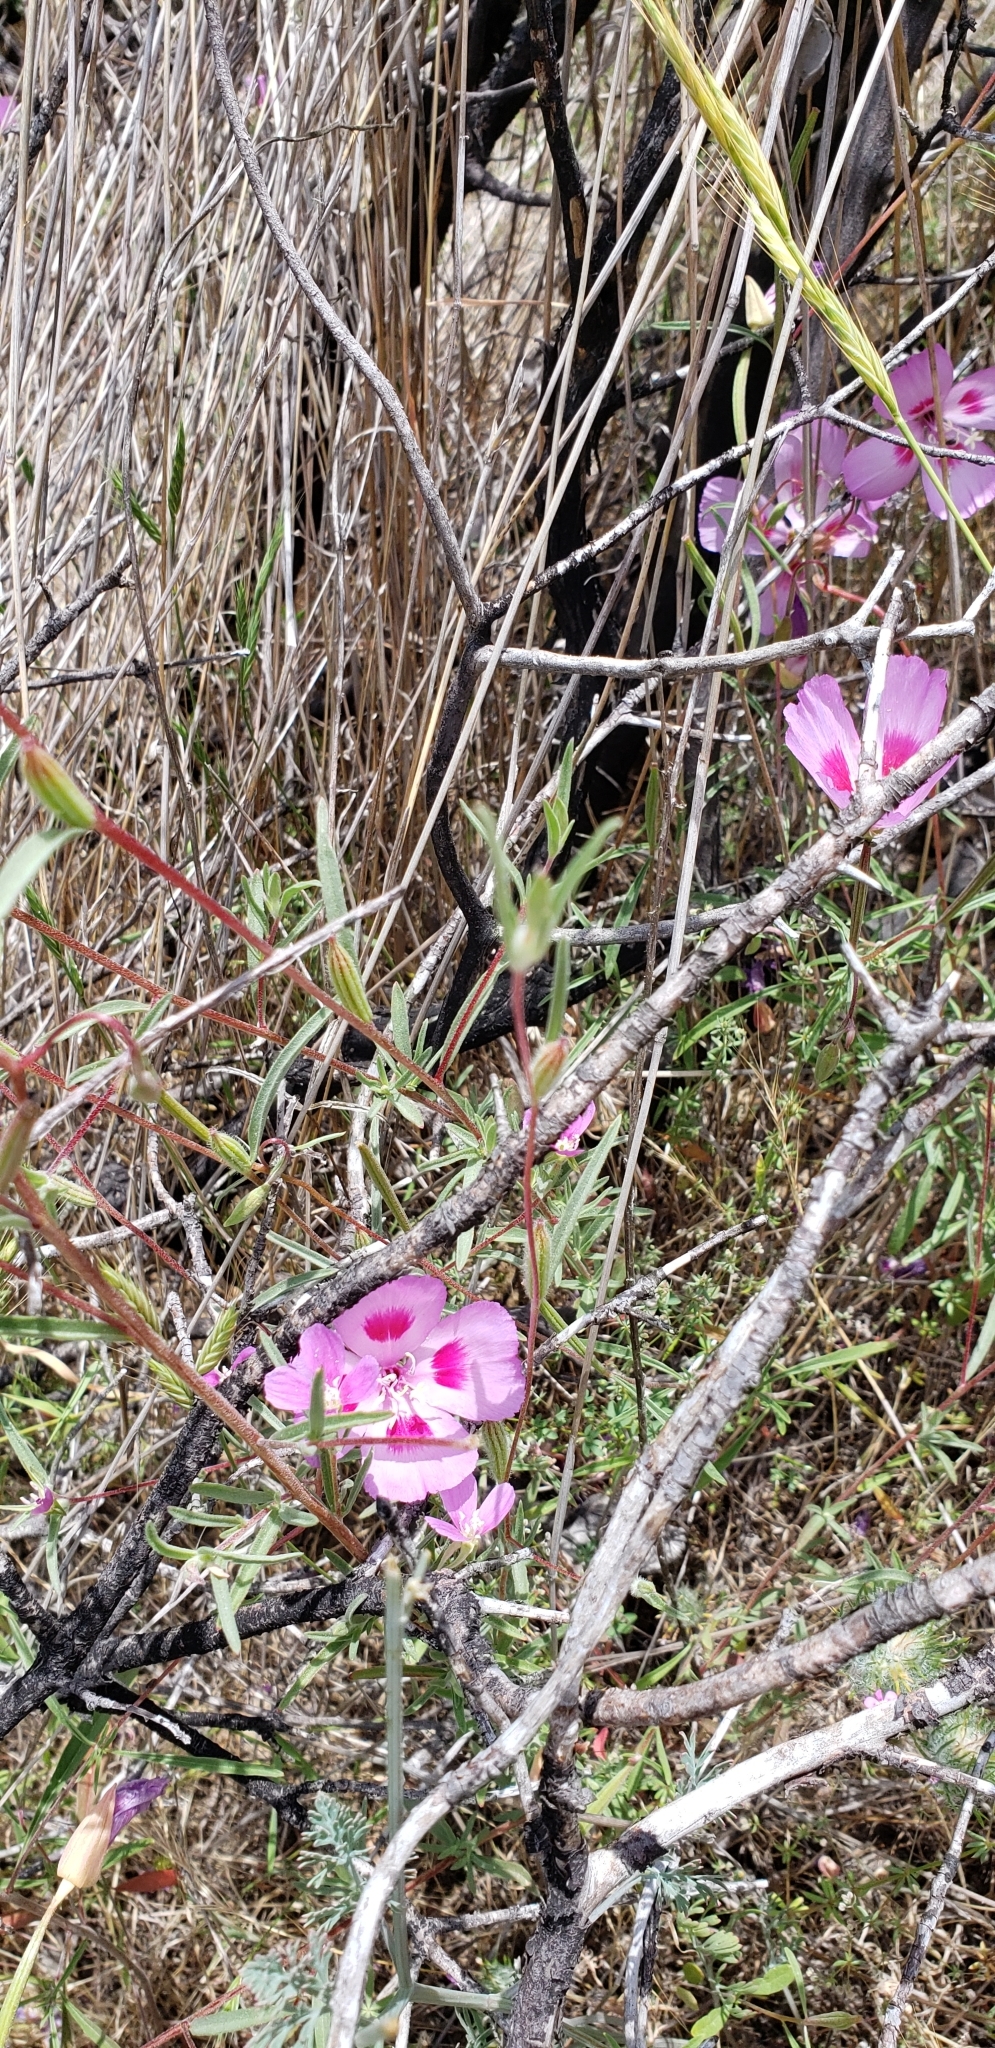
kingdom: Plantae
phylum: Tracheophyta
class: Magnoliopsida
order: Myrtales
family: Onagraceae
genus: Clarkia
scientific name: Clarkia amoena
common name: Godetia
